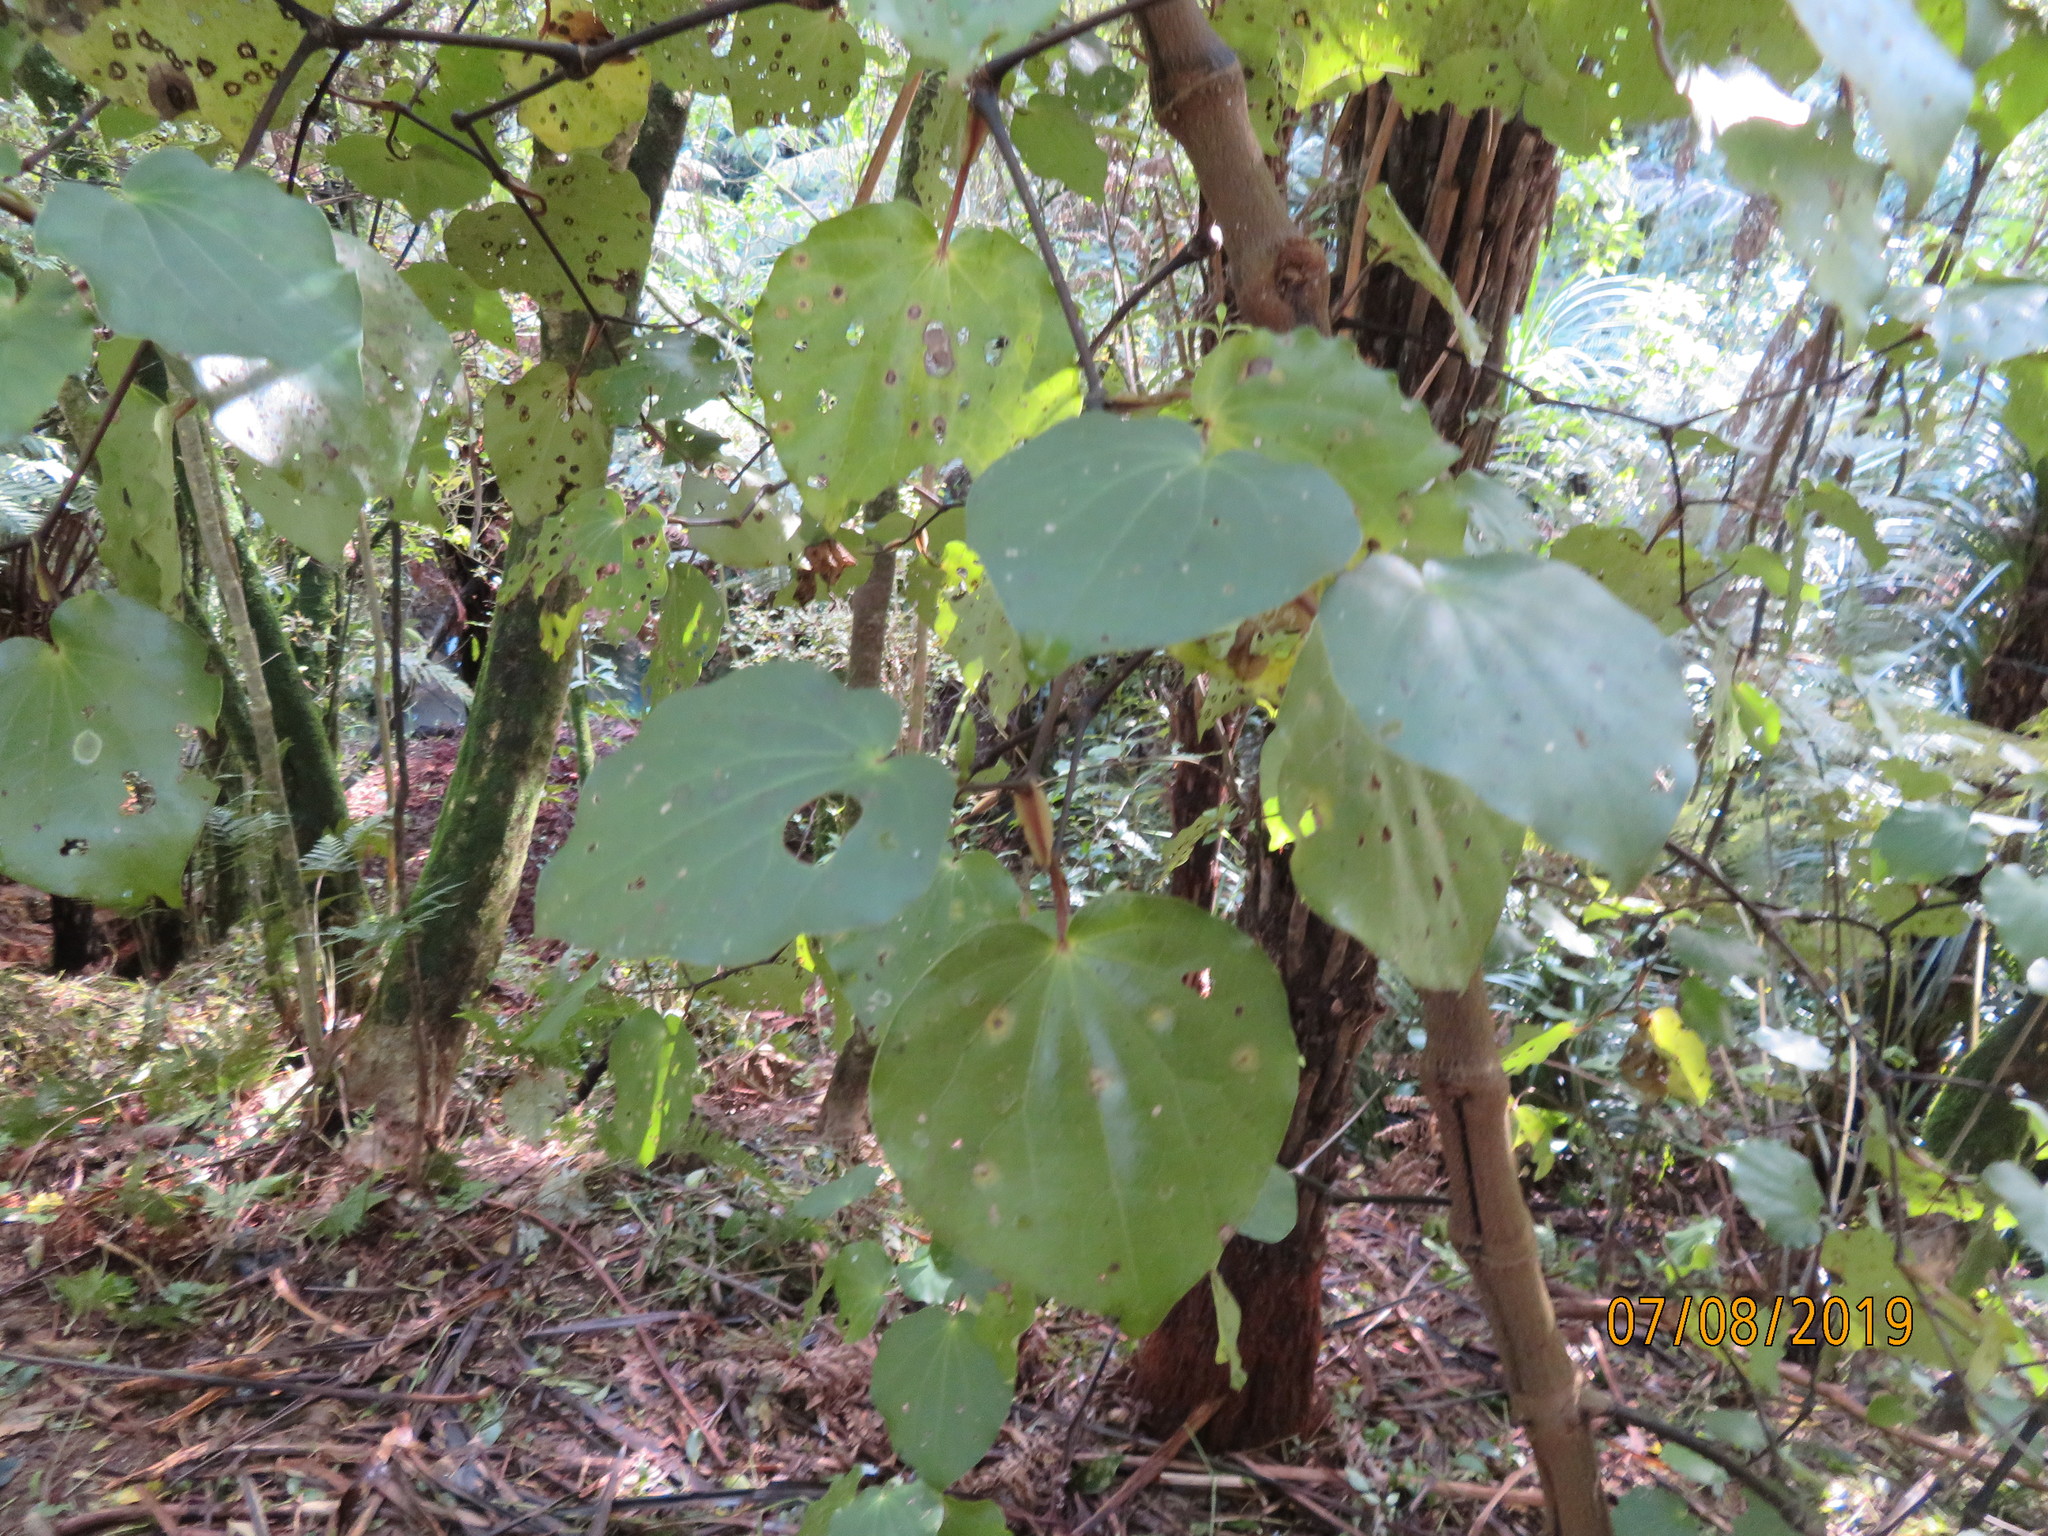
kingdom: Plantae
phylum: Tracheophyta
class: Magnoliopsida
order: Piperales
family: Piperaceae
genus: Macropiper
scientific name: Macropiper excelsum
